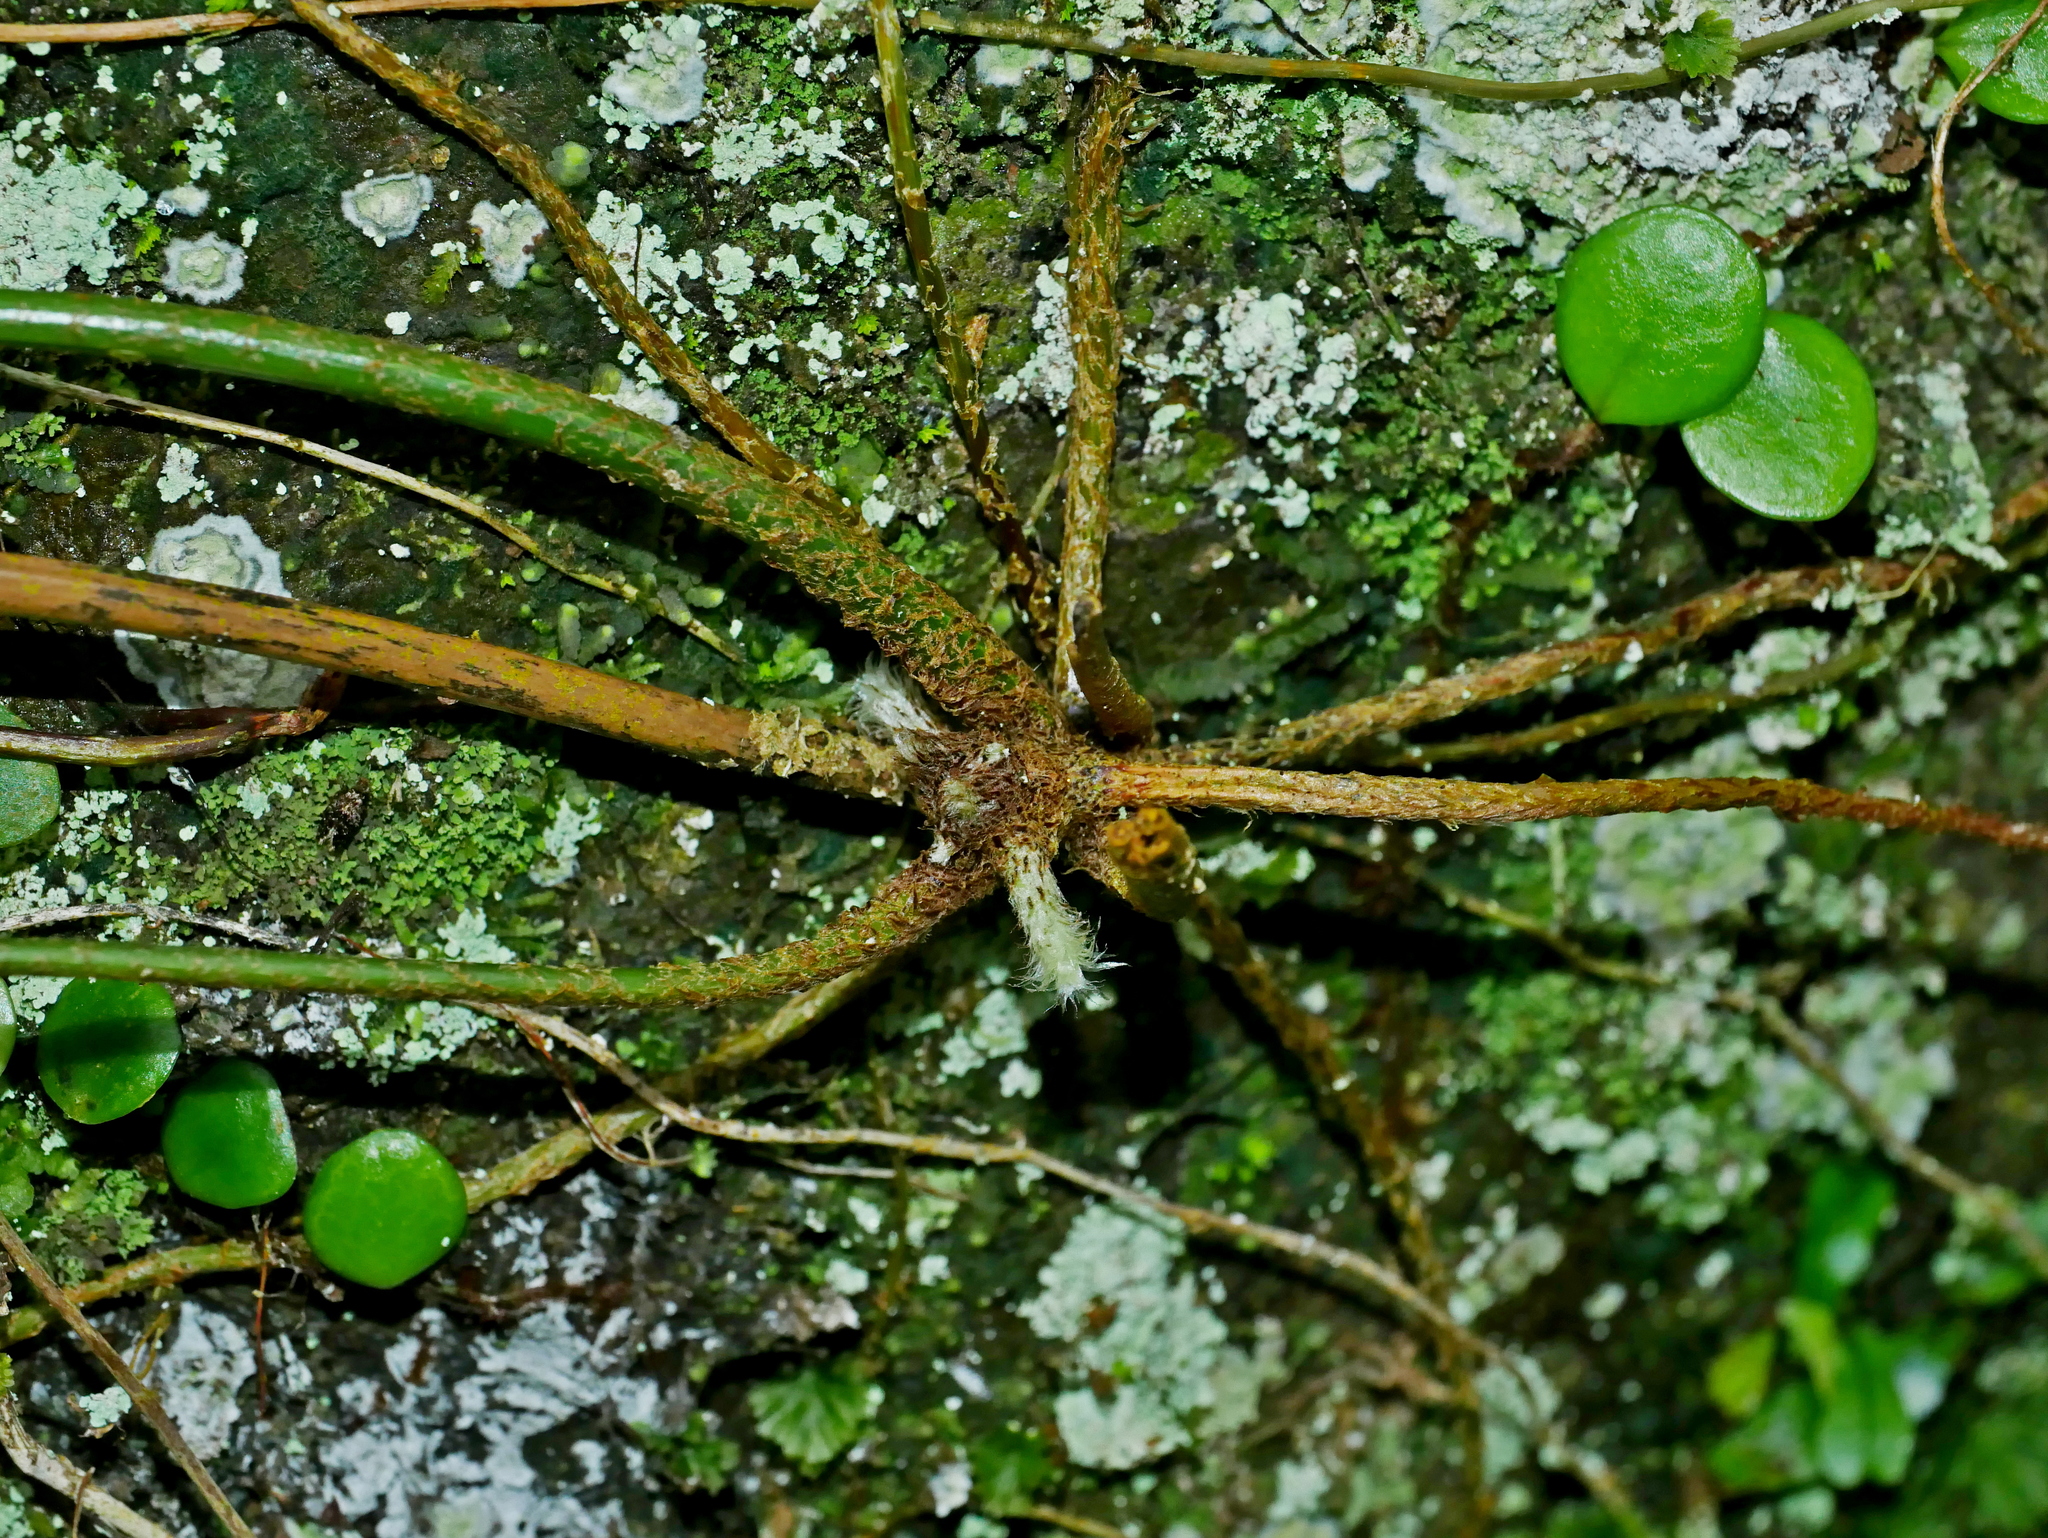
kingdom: Plantae
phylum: Tracheophyta
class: Polypodiopsida
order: Polypodiales
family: Nephrolepidaceae
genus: Nephrolepis
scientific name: Nephrolepis biserrata
